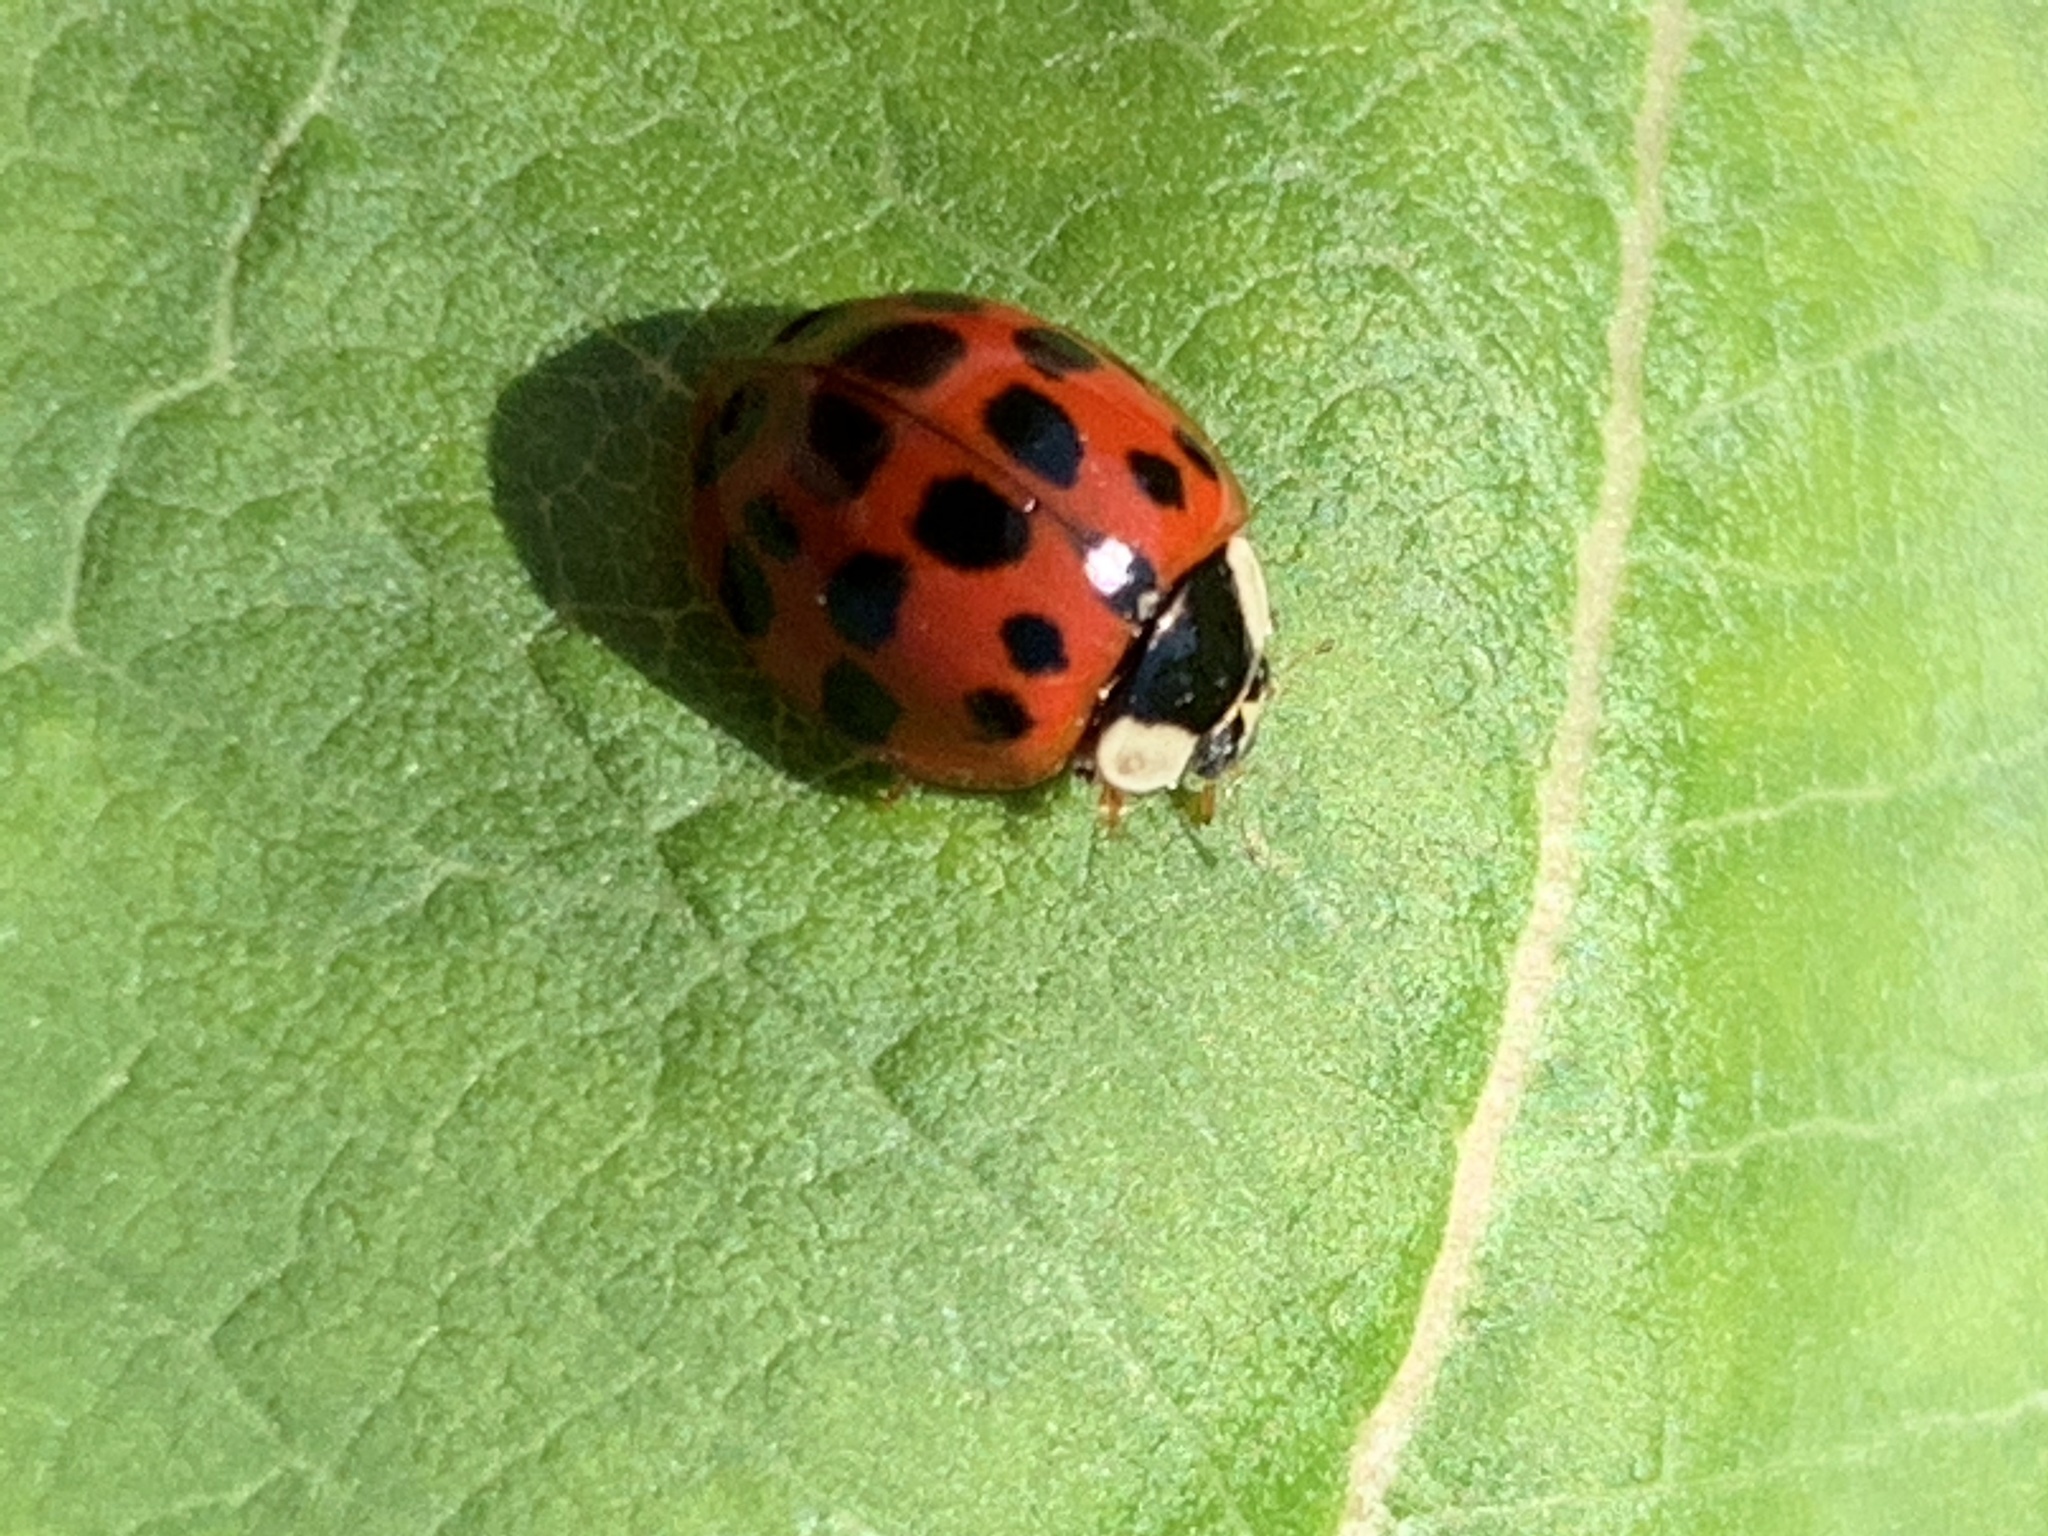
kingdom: Animalia
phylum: Arthropoda
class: Insecta
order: Coleoptera
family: Coccinellidae
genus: Harmonia
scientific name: Harmonia axyridis
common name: Harlequin ladybird
